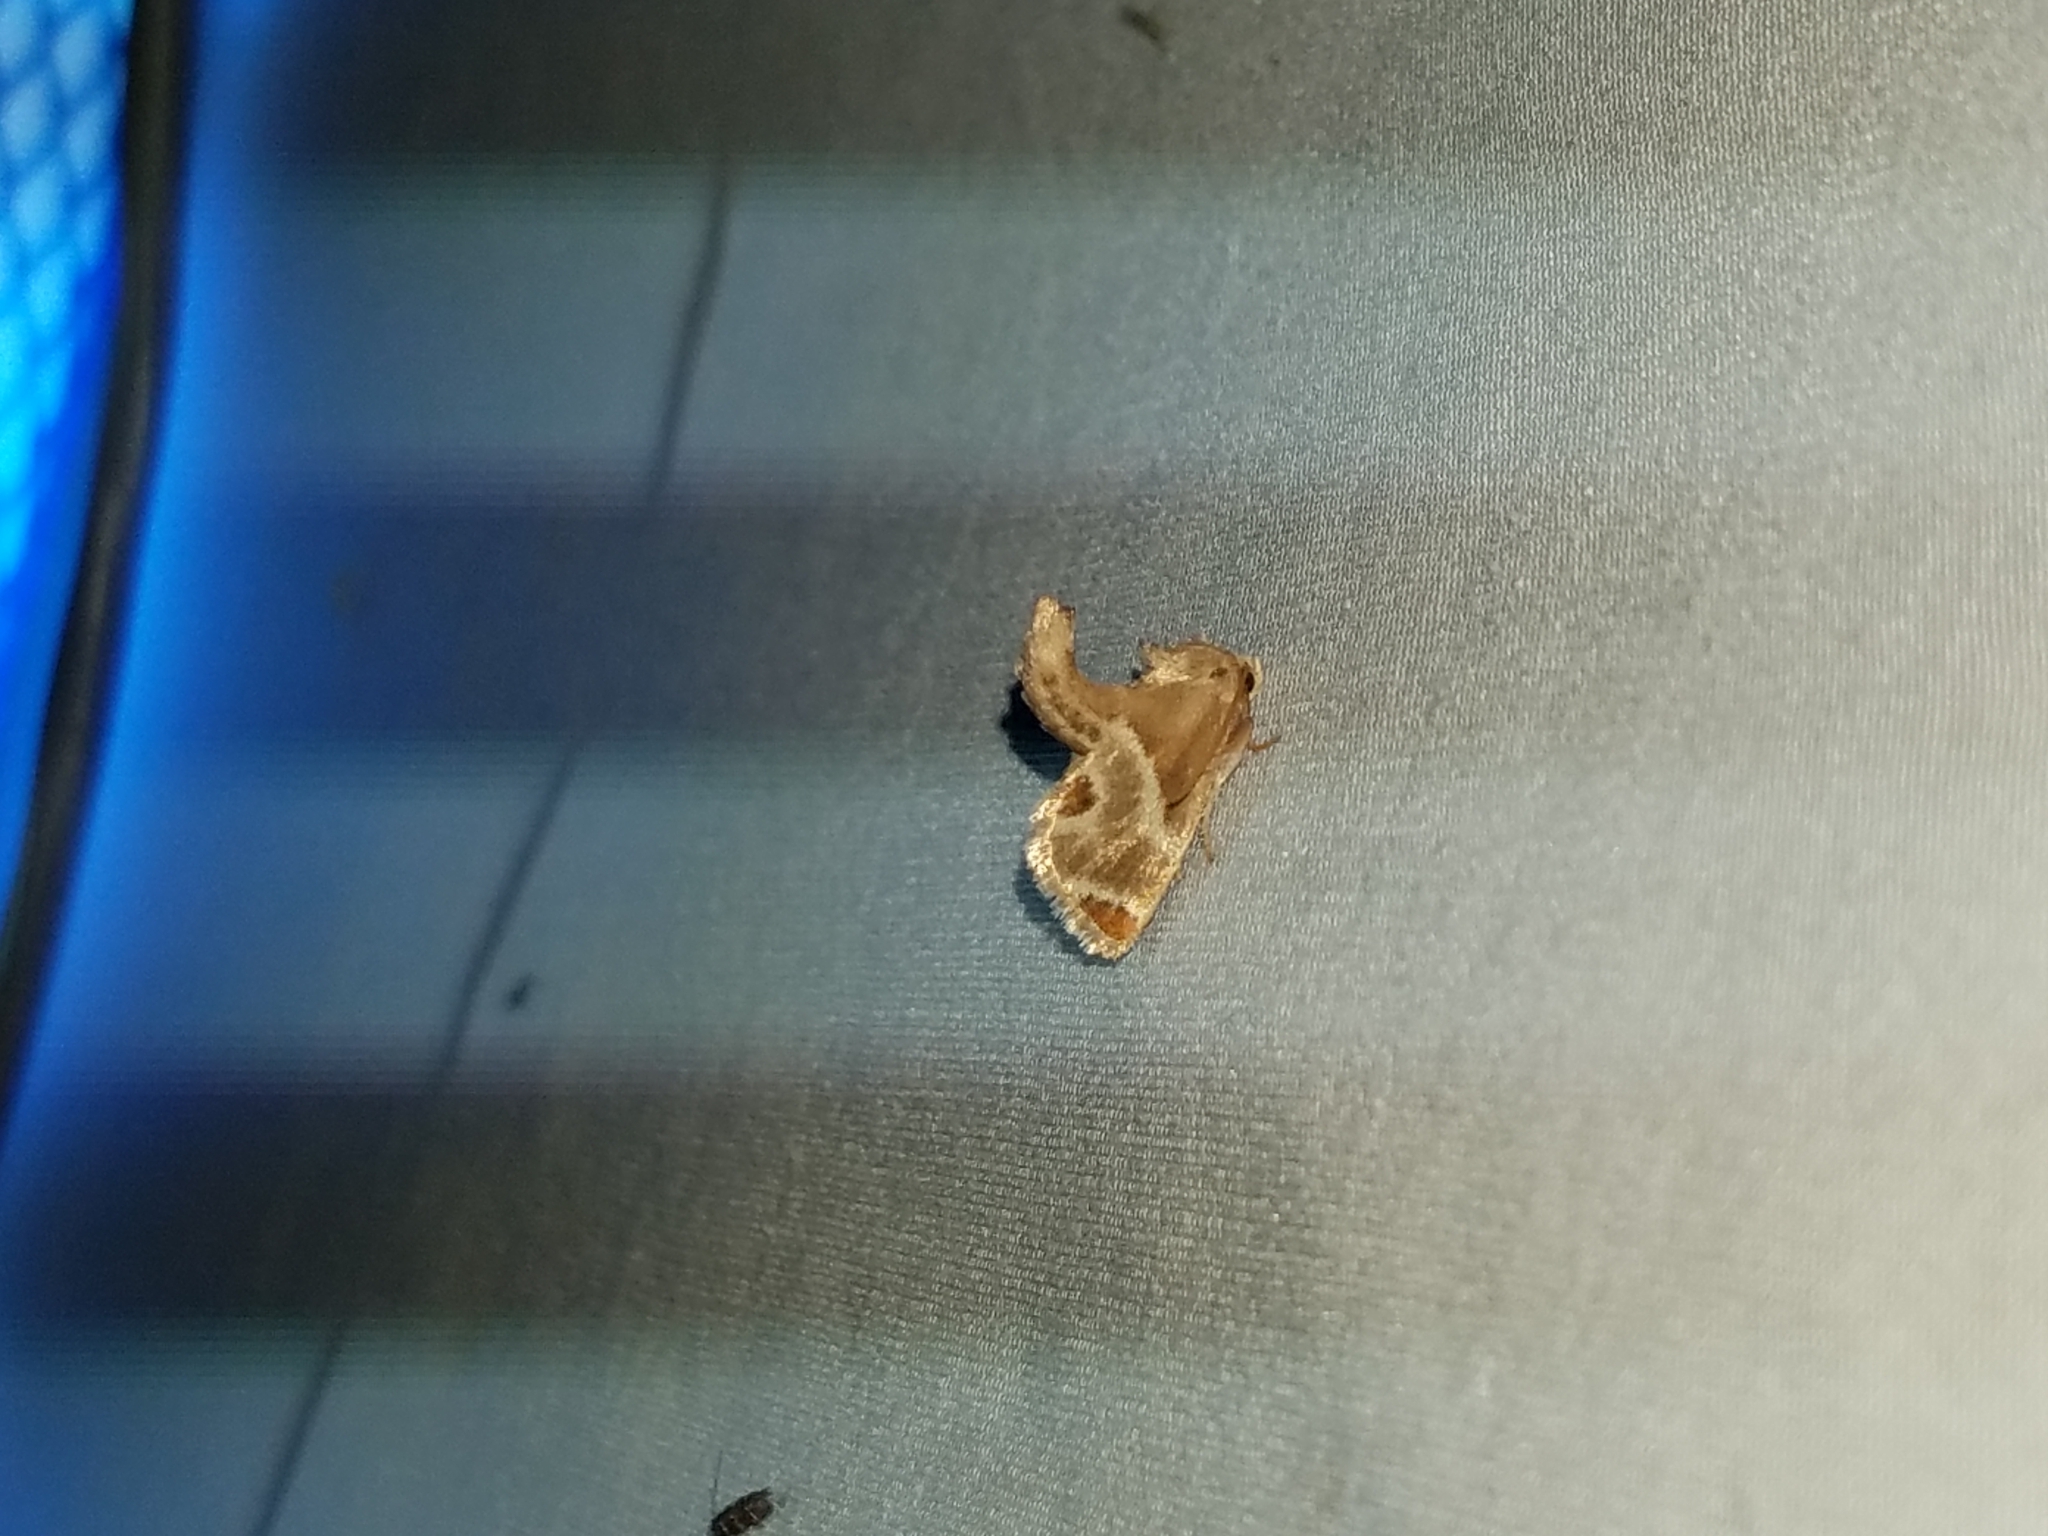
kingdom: Animalia
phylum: Arthropoda
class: Insecta
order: Lepidoptera
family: Limacodidae
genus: Apoda
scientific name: Apoda biguttata
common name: Shagreened slug moth
